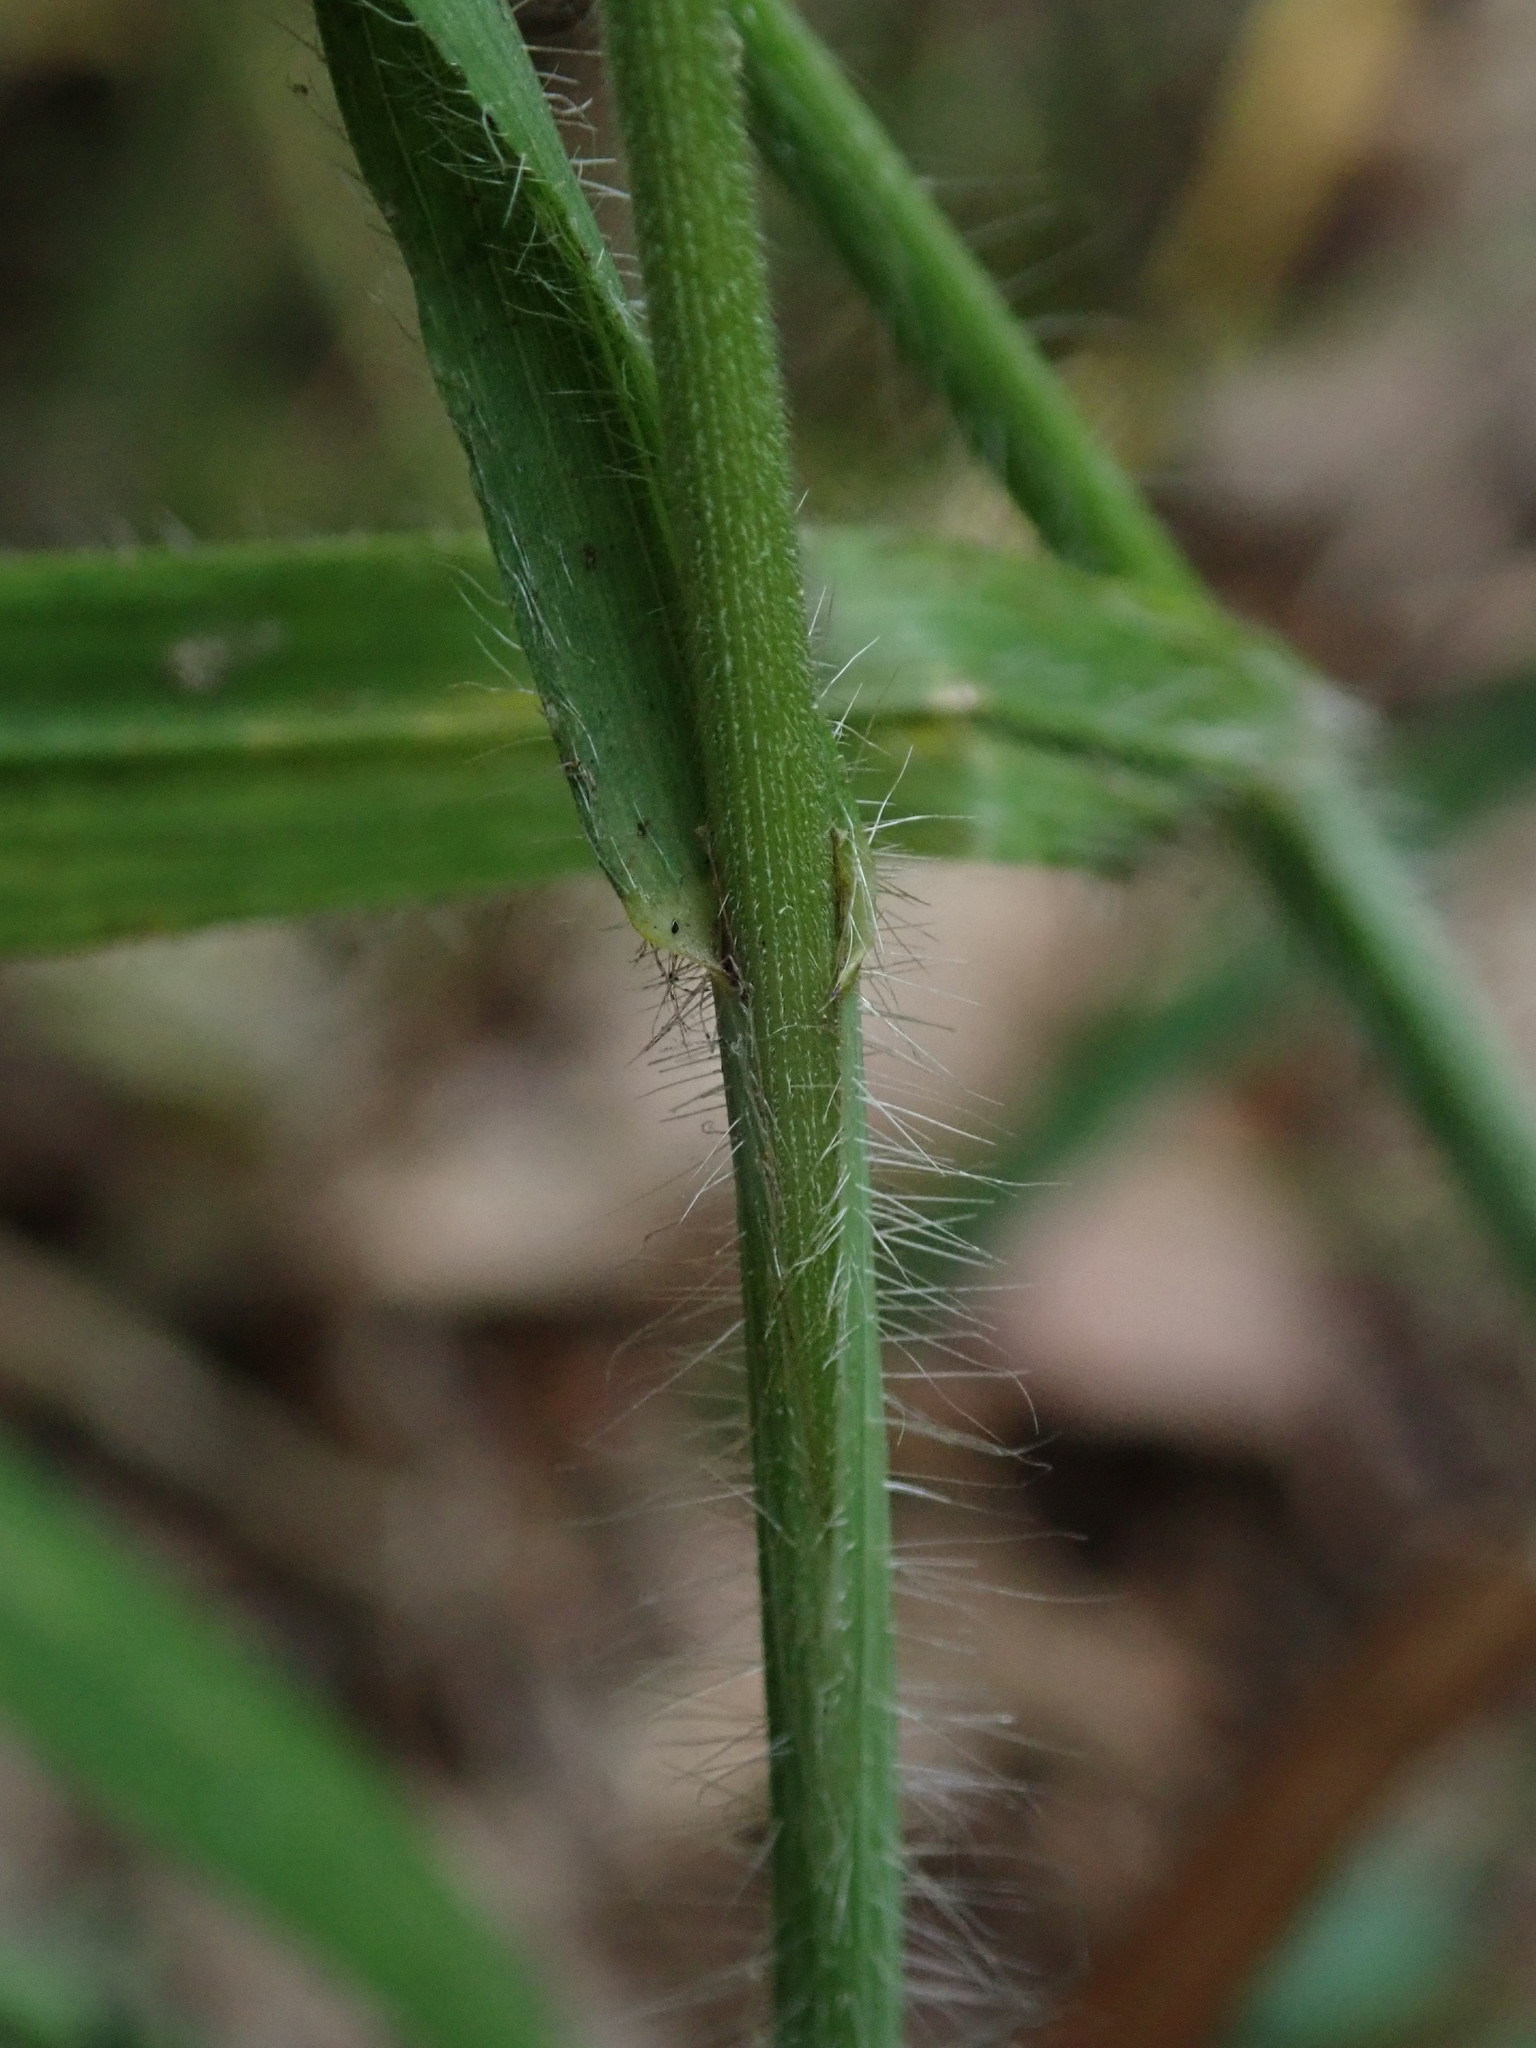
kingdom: Plantae
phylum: Tracheophyta
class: Liliopsida
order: Poales
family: Poaceae
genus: Bromus
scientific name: Bromus ramosus
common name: Hairy brome
